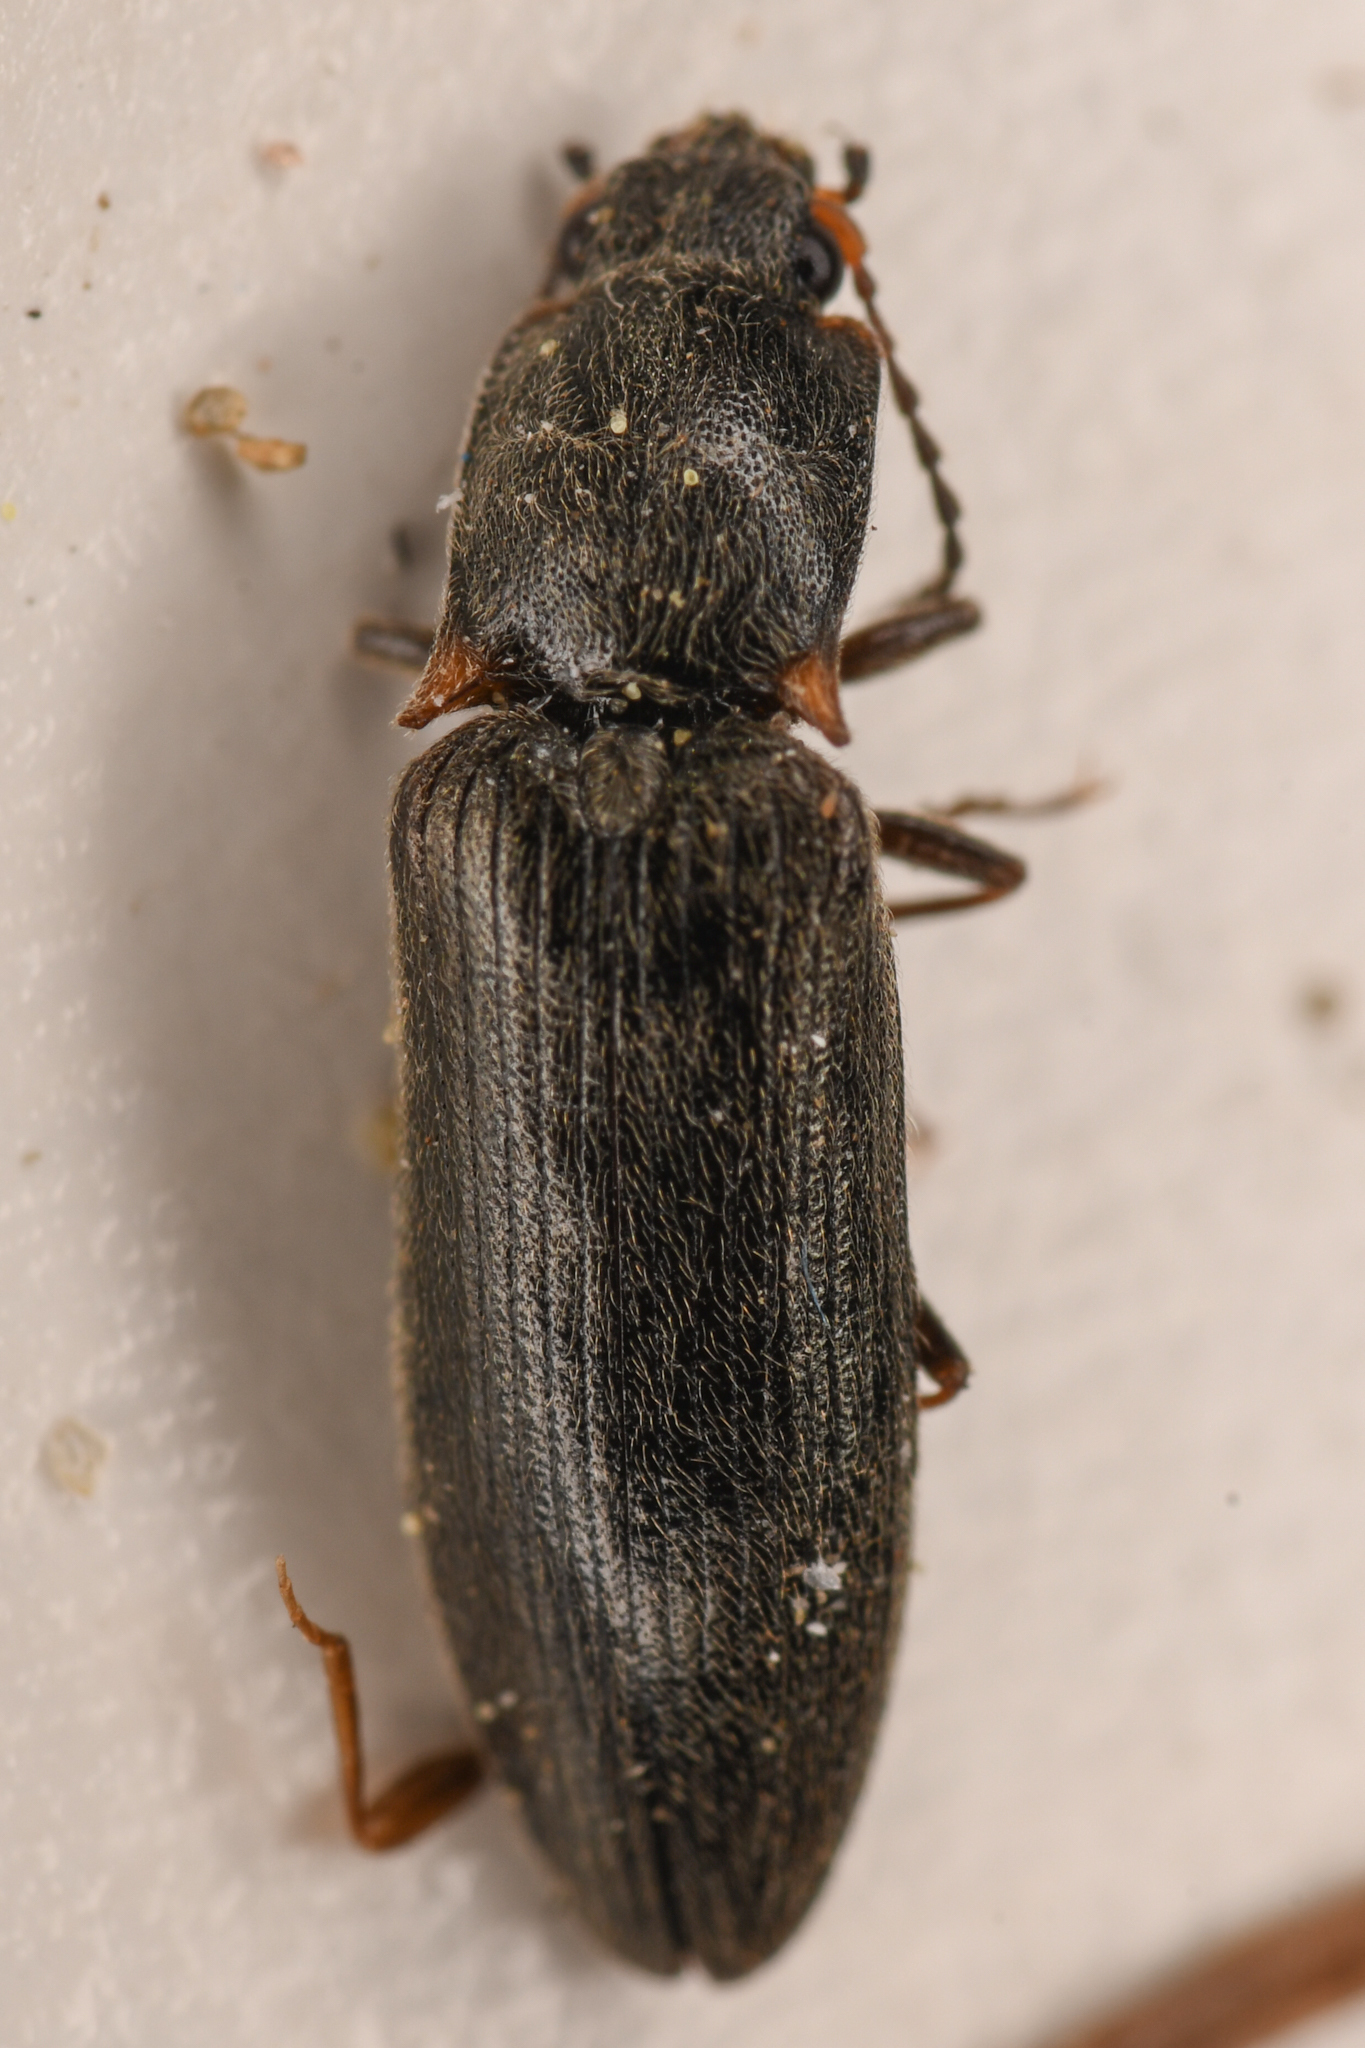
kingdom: Animalia
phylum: Arthropoda
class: Insecta
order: Coleoptera
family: Elateridae
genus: Ctenicera
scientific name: Ctenicera angularis
